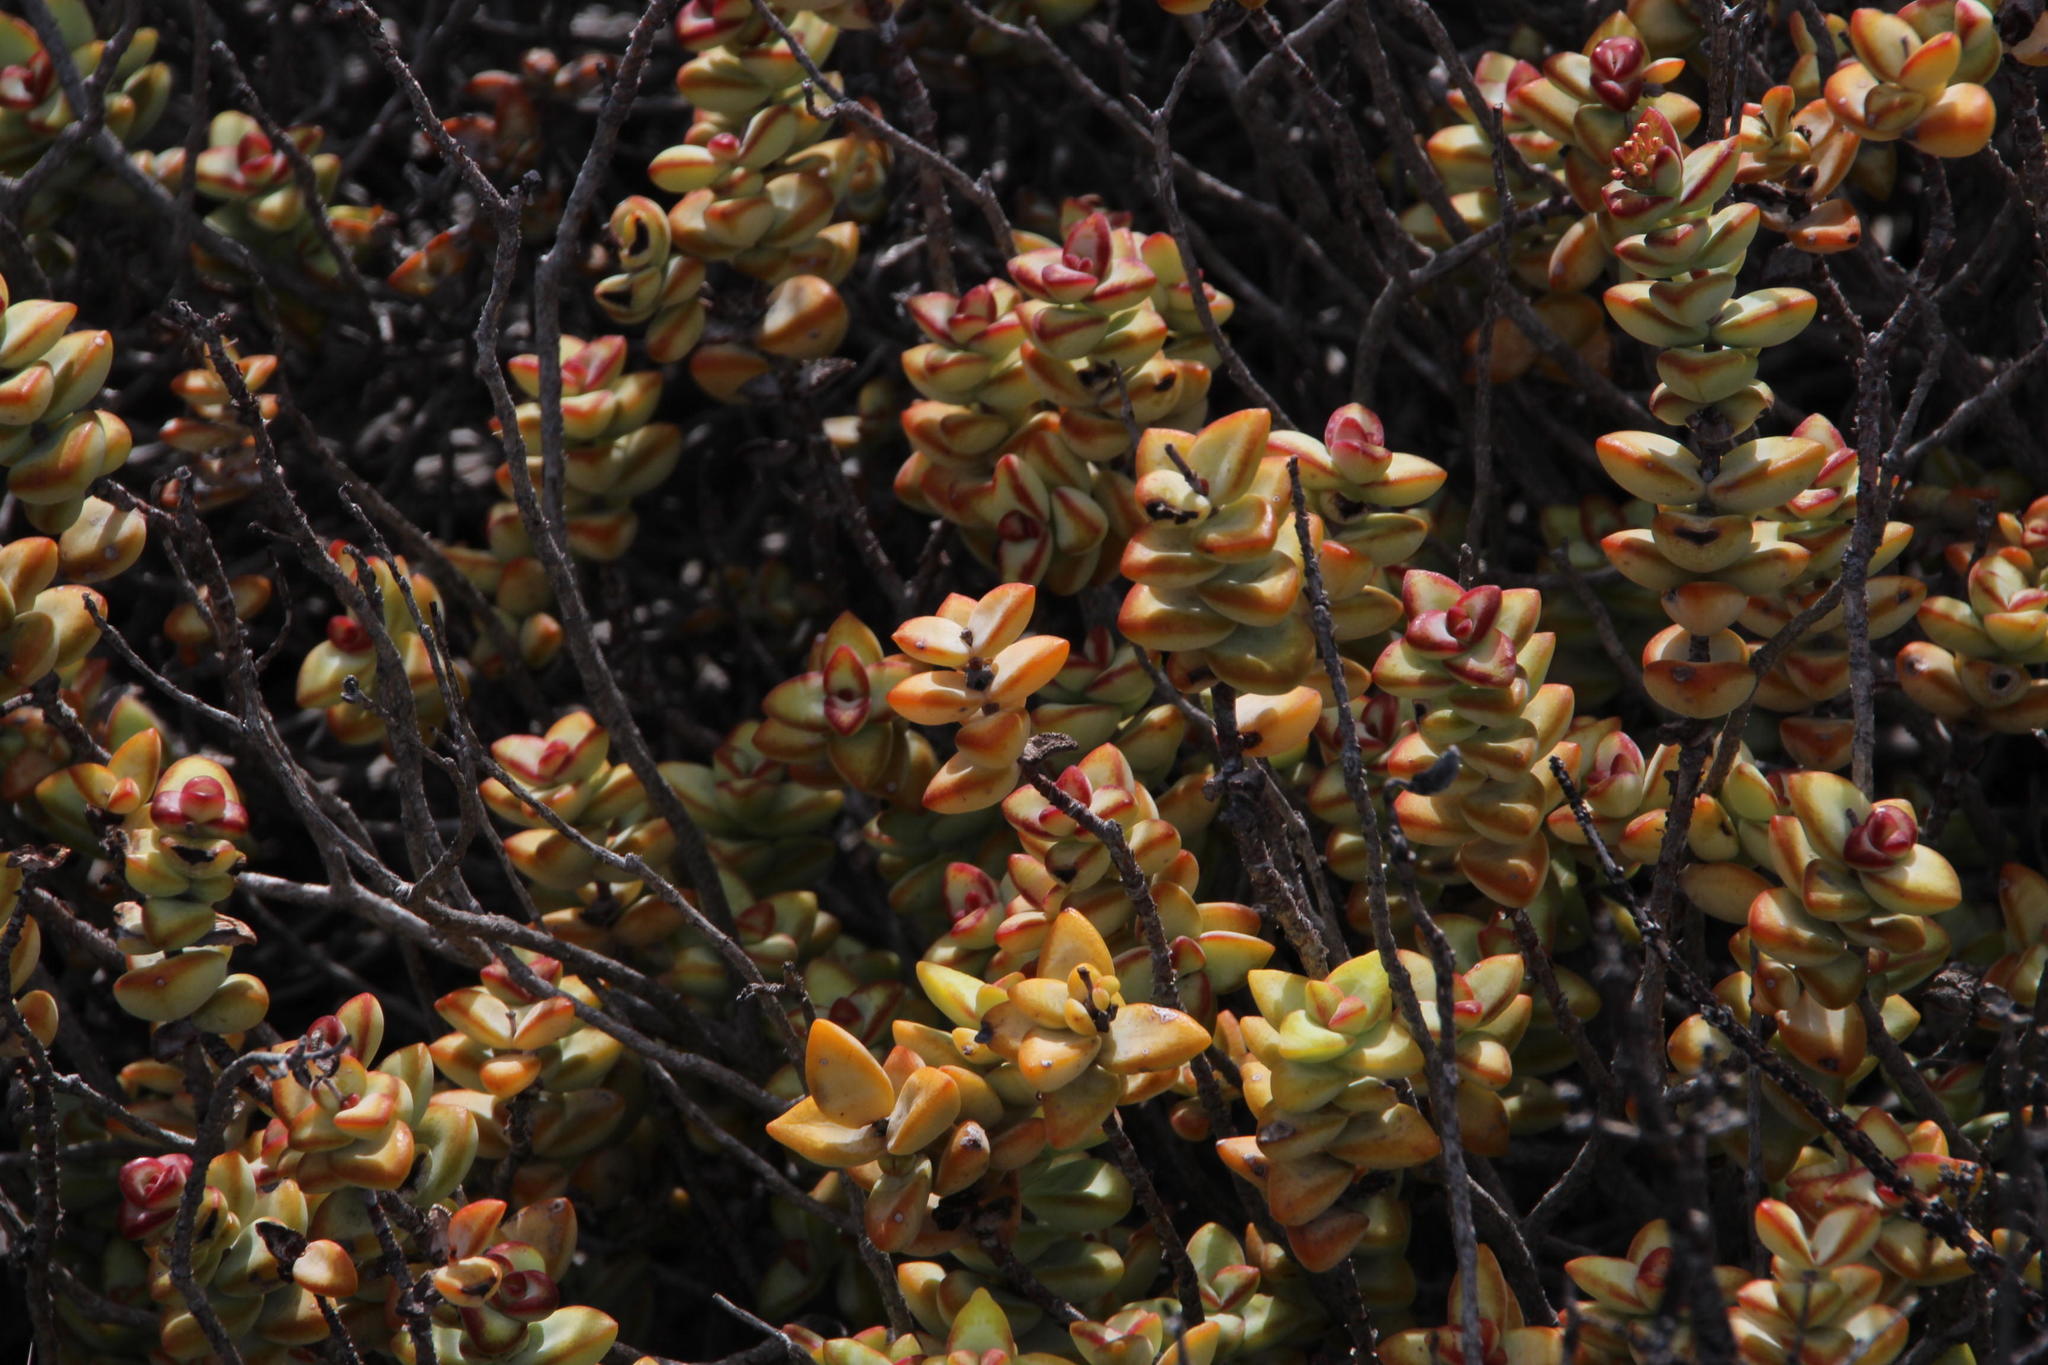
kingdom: Plantae
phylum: Tracheophyta
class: Magnoliopsida
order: Saxifragales
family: Crassulaceae
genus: Crassula
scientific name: Crassula rupestris
